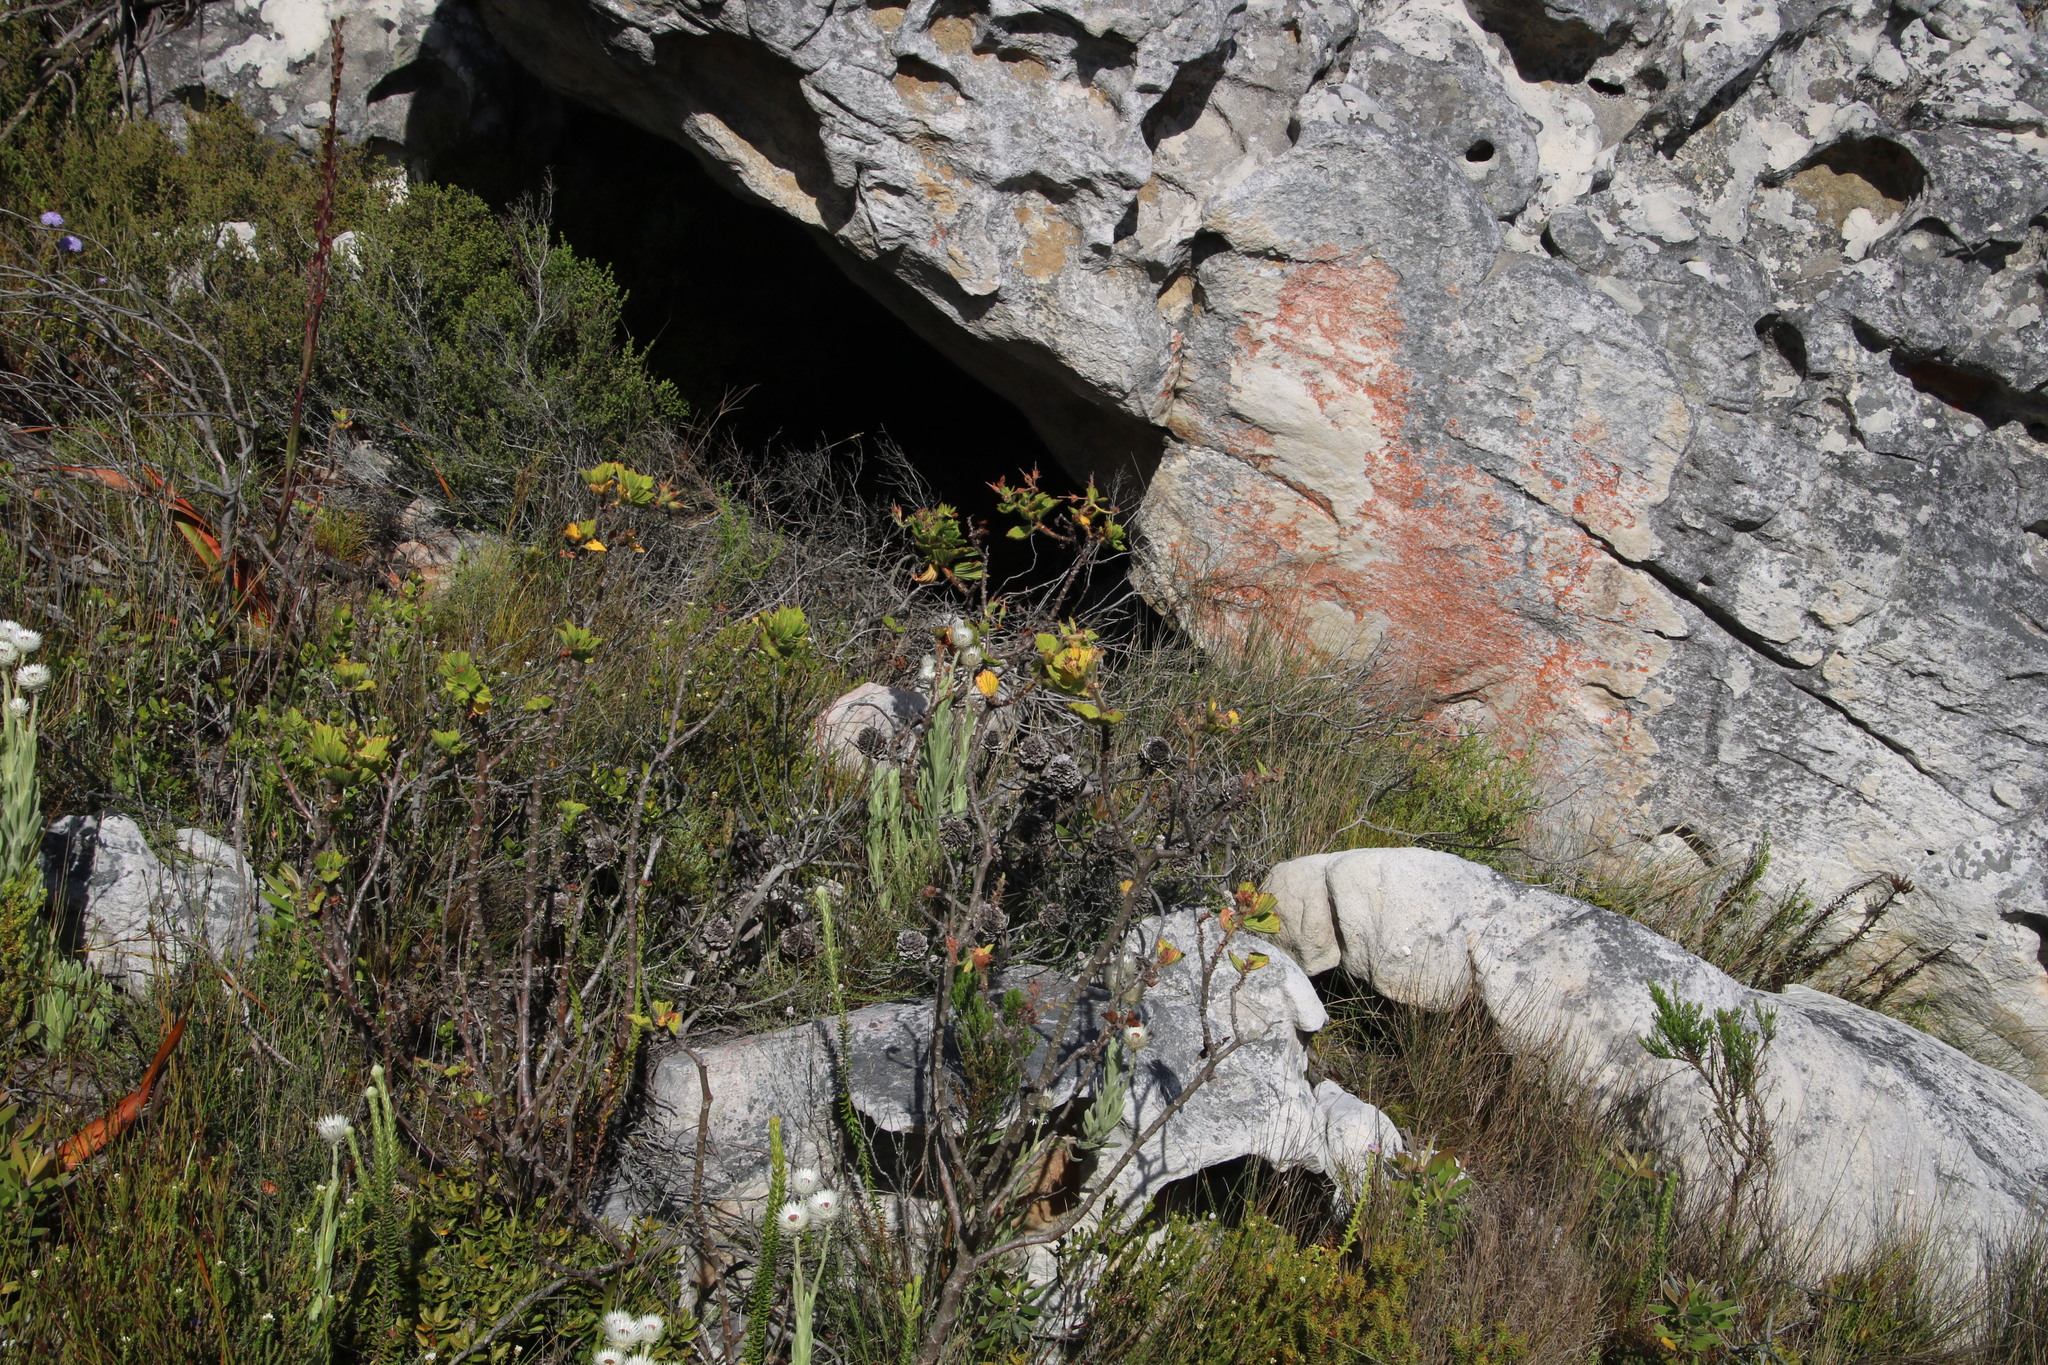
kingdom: Plantae
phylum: Tracheophyta
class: Magnoliopsida
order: Geraniales
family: Geraniaceae
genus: Pelargonium
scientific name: Pelargonium cucullatum
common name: Tree pelargonium
